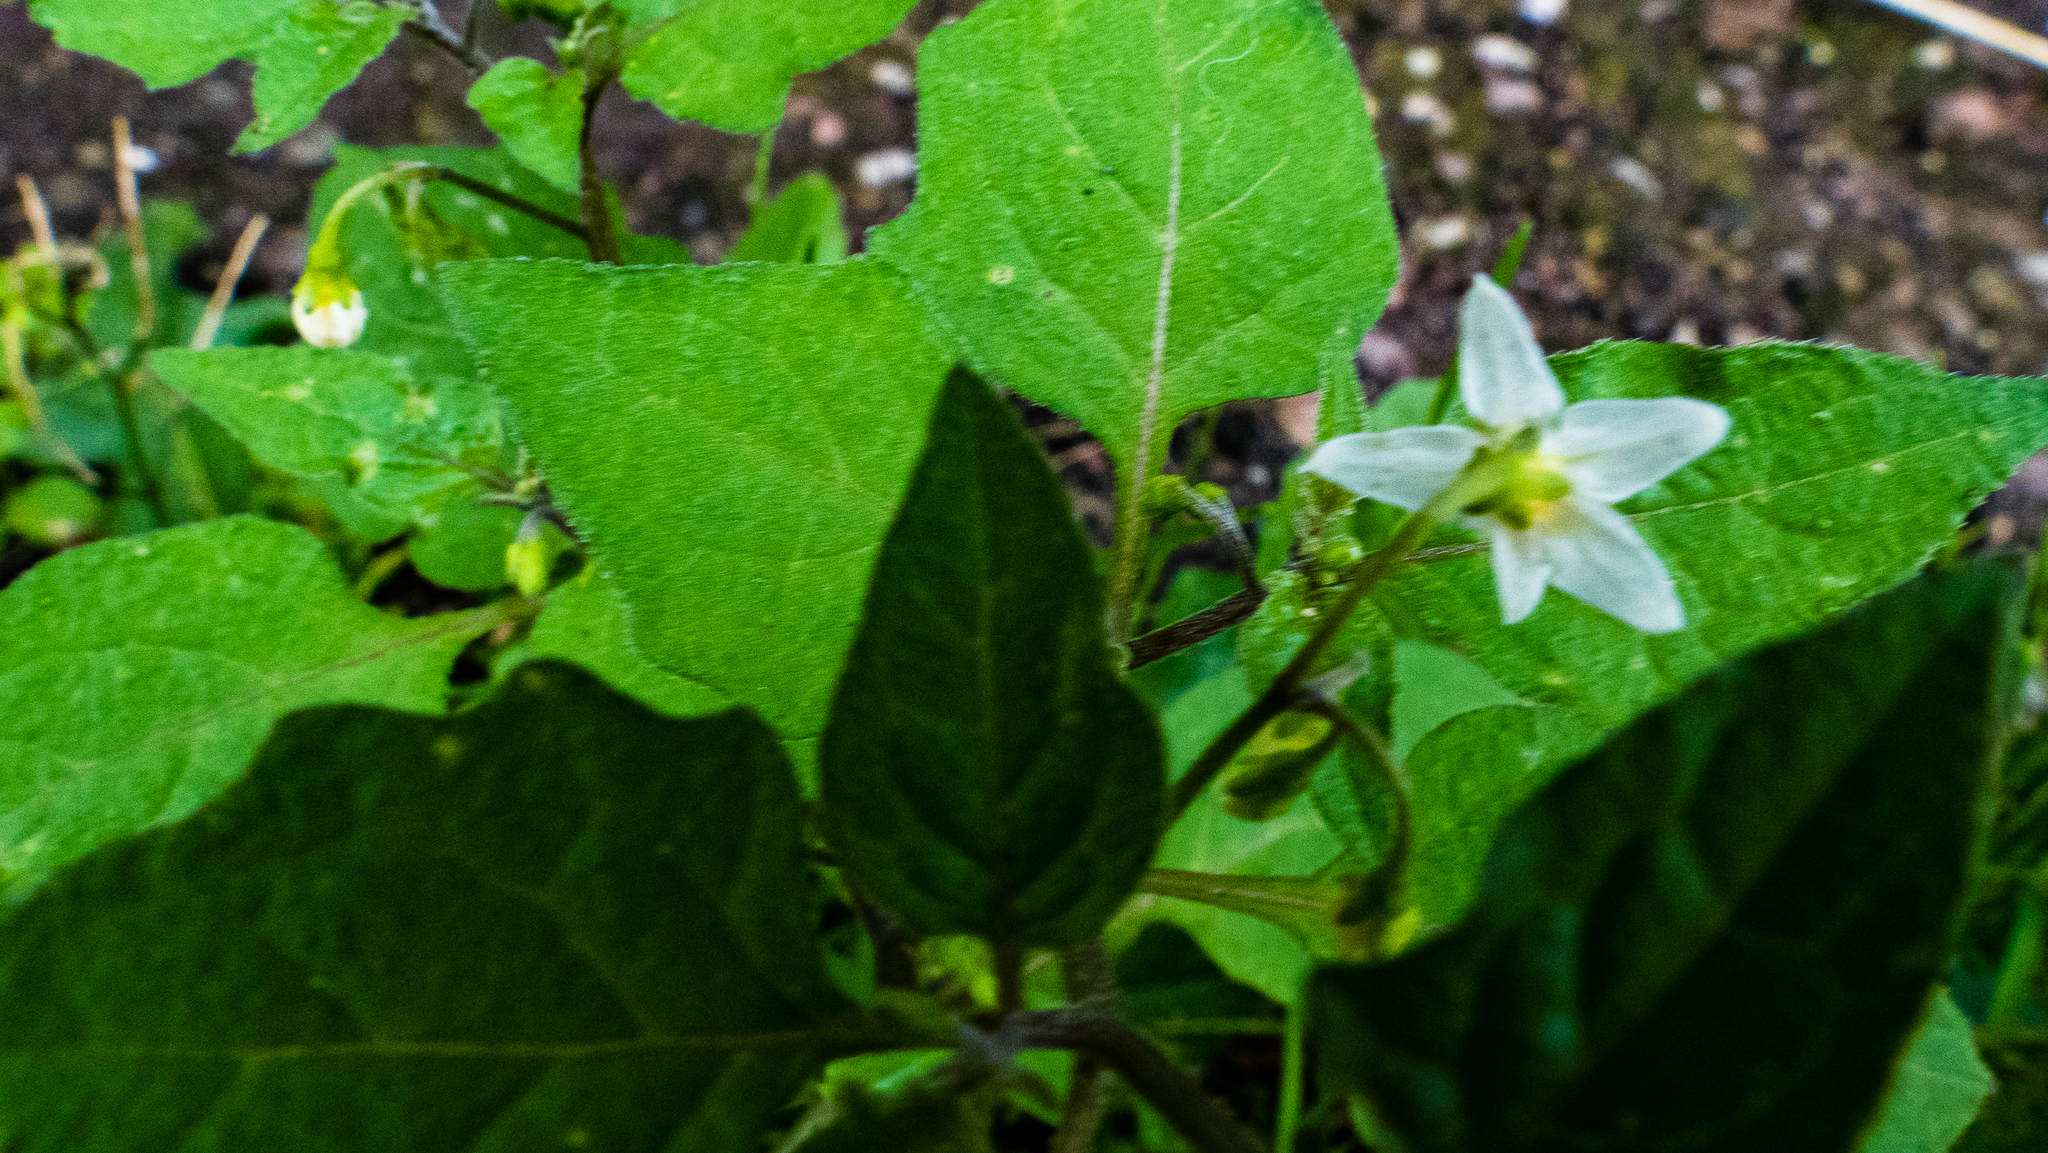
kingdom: Plantae
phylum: Tracheophyta
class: Magnoliopsida
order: Solanales
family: Solanaceae
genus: Solanum
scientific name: Solanum nigrum
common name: Black nightshade
